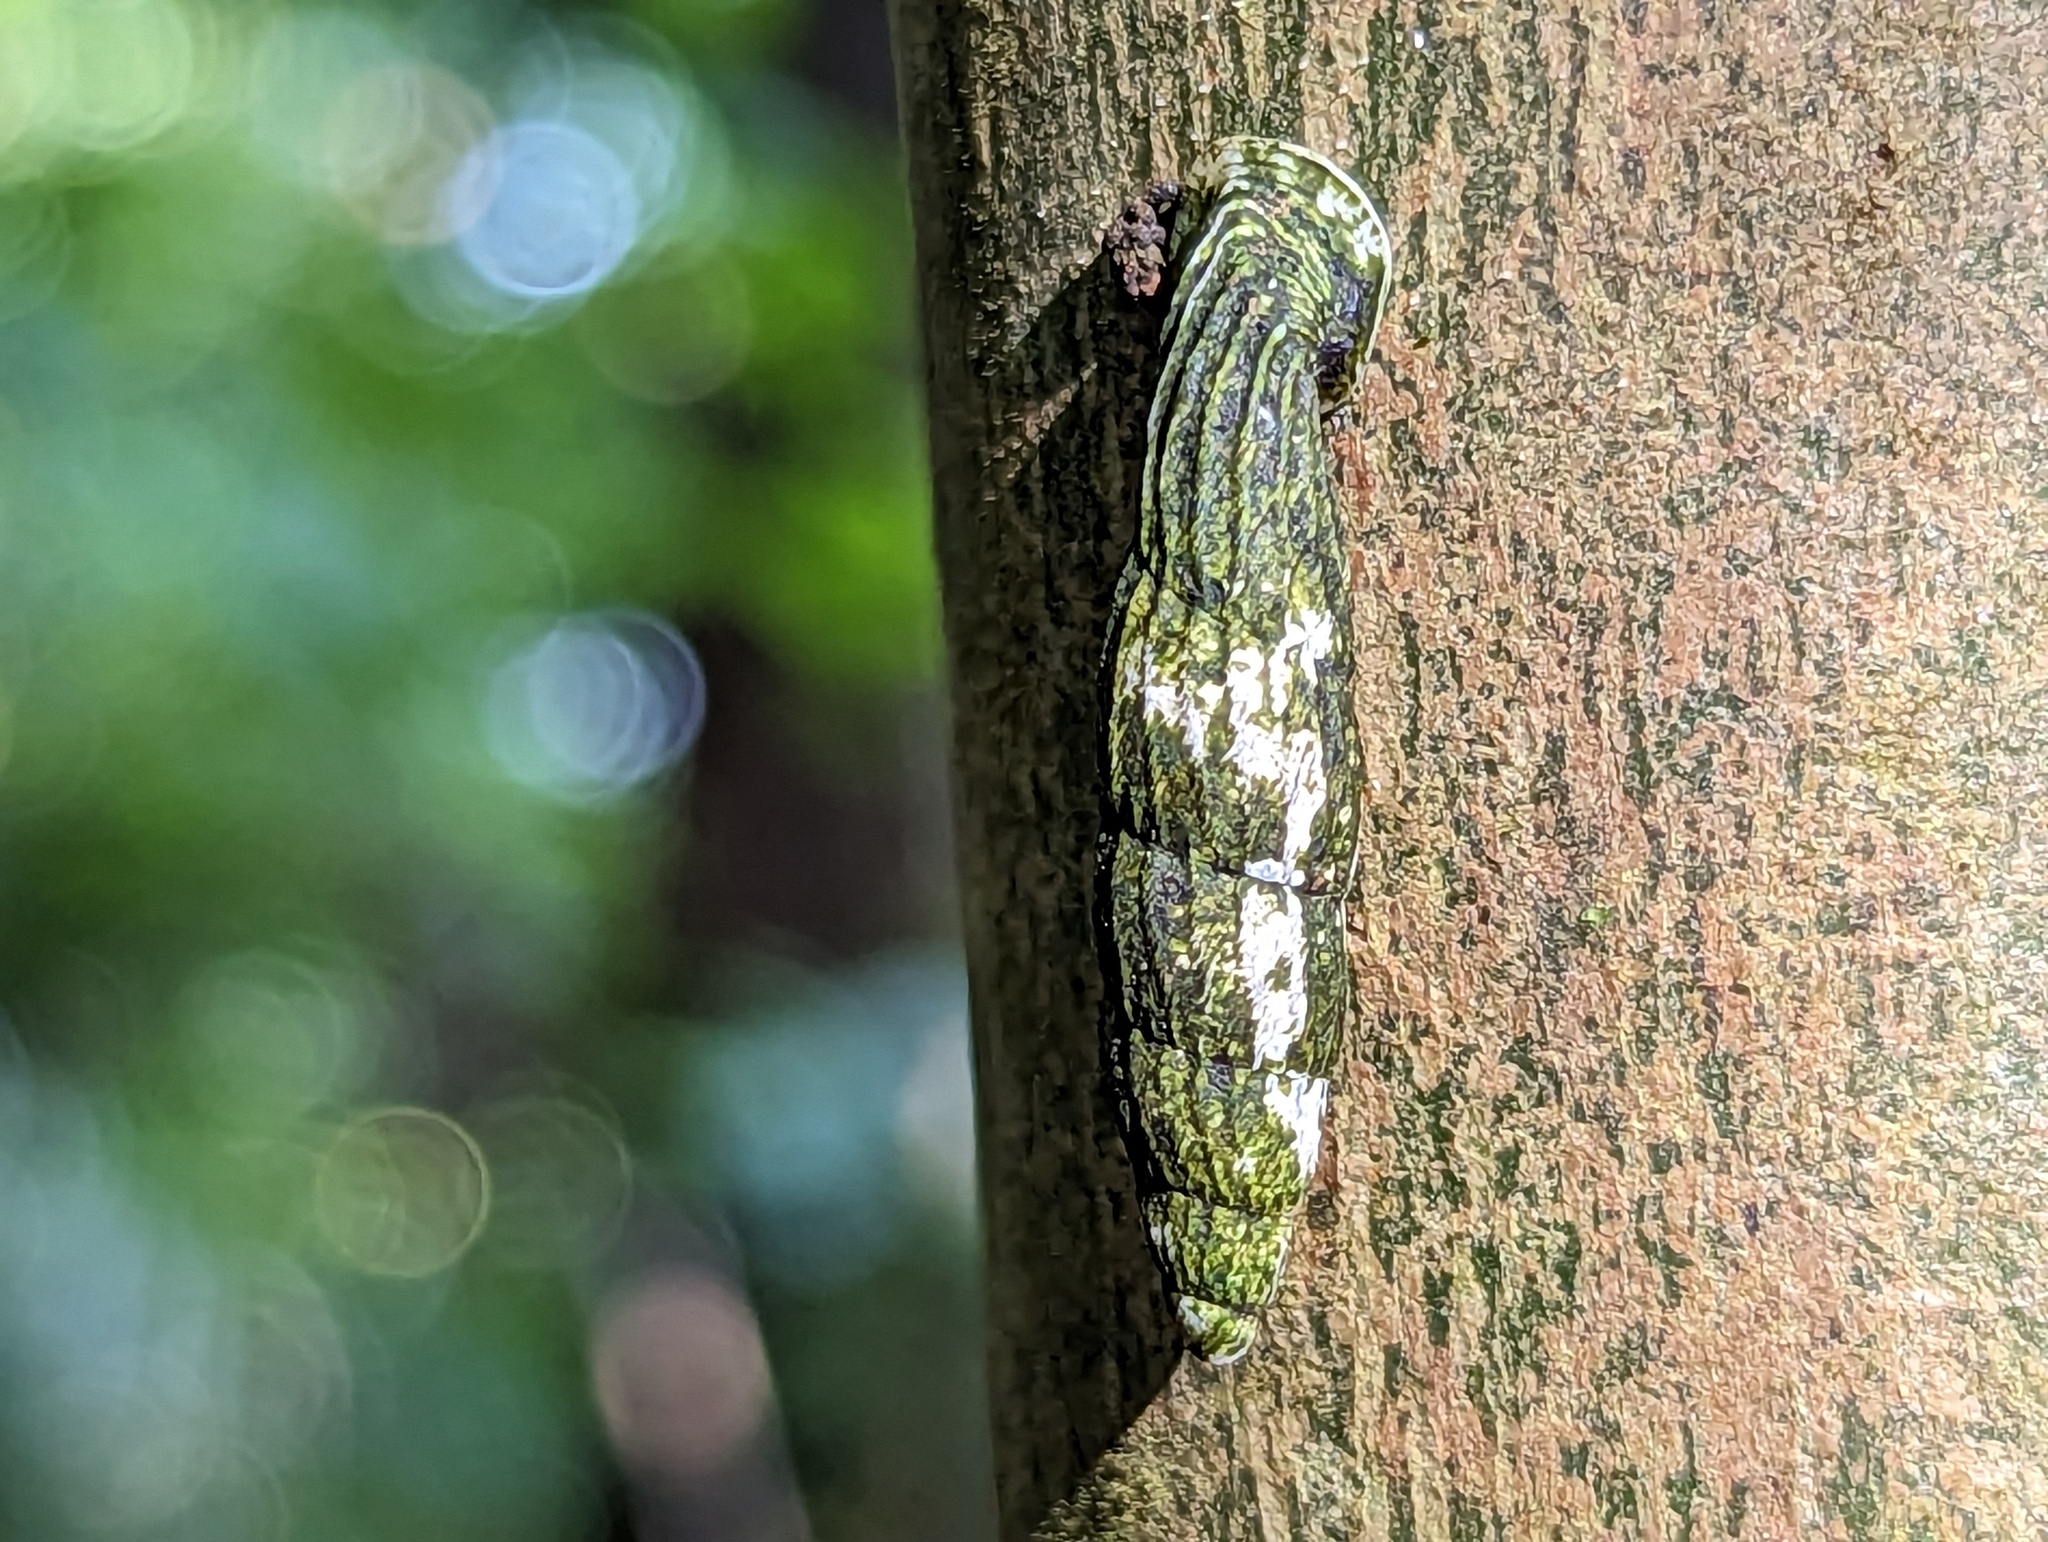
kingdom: Animalia
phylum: Mollusca
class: Gastropoda
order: Stylommatophora
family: Clausiliidae
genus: Nenia
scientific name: Nenia tridens
